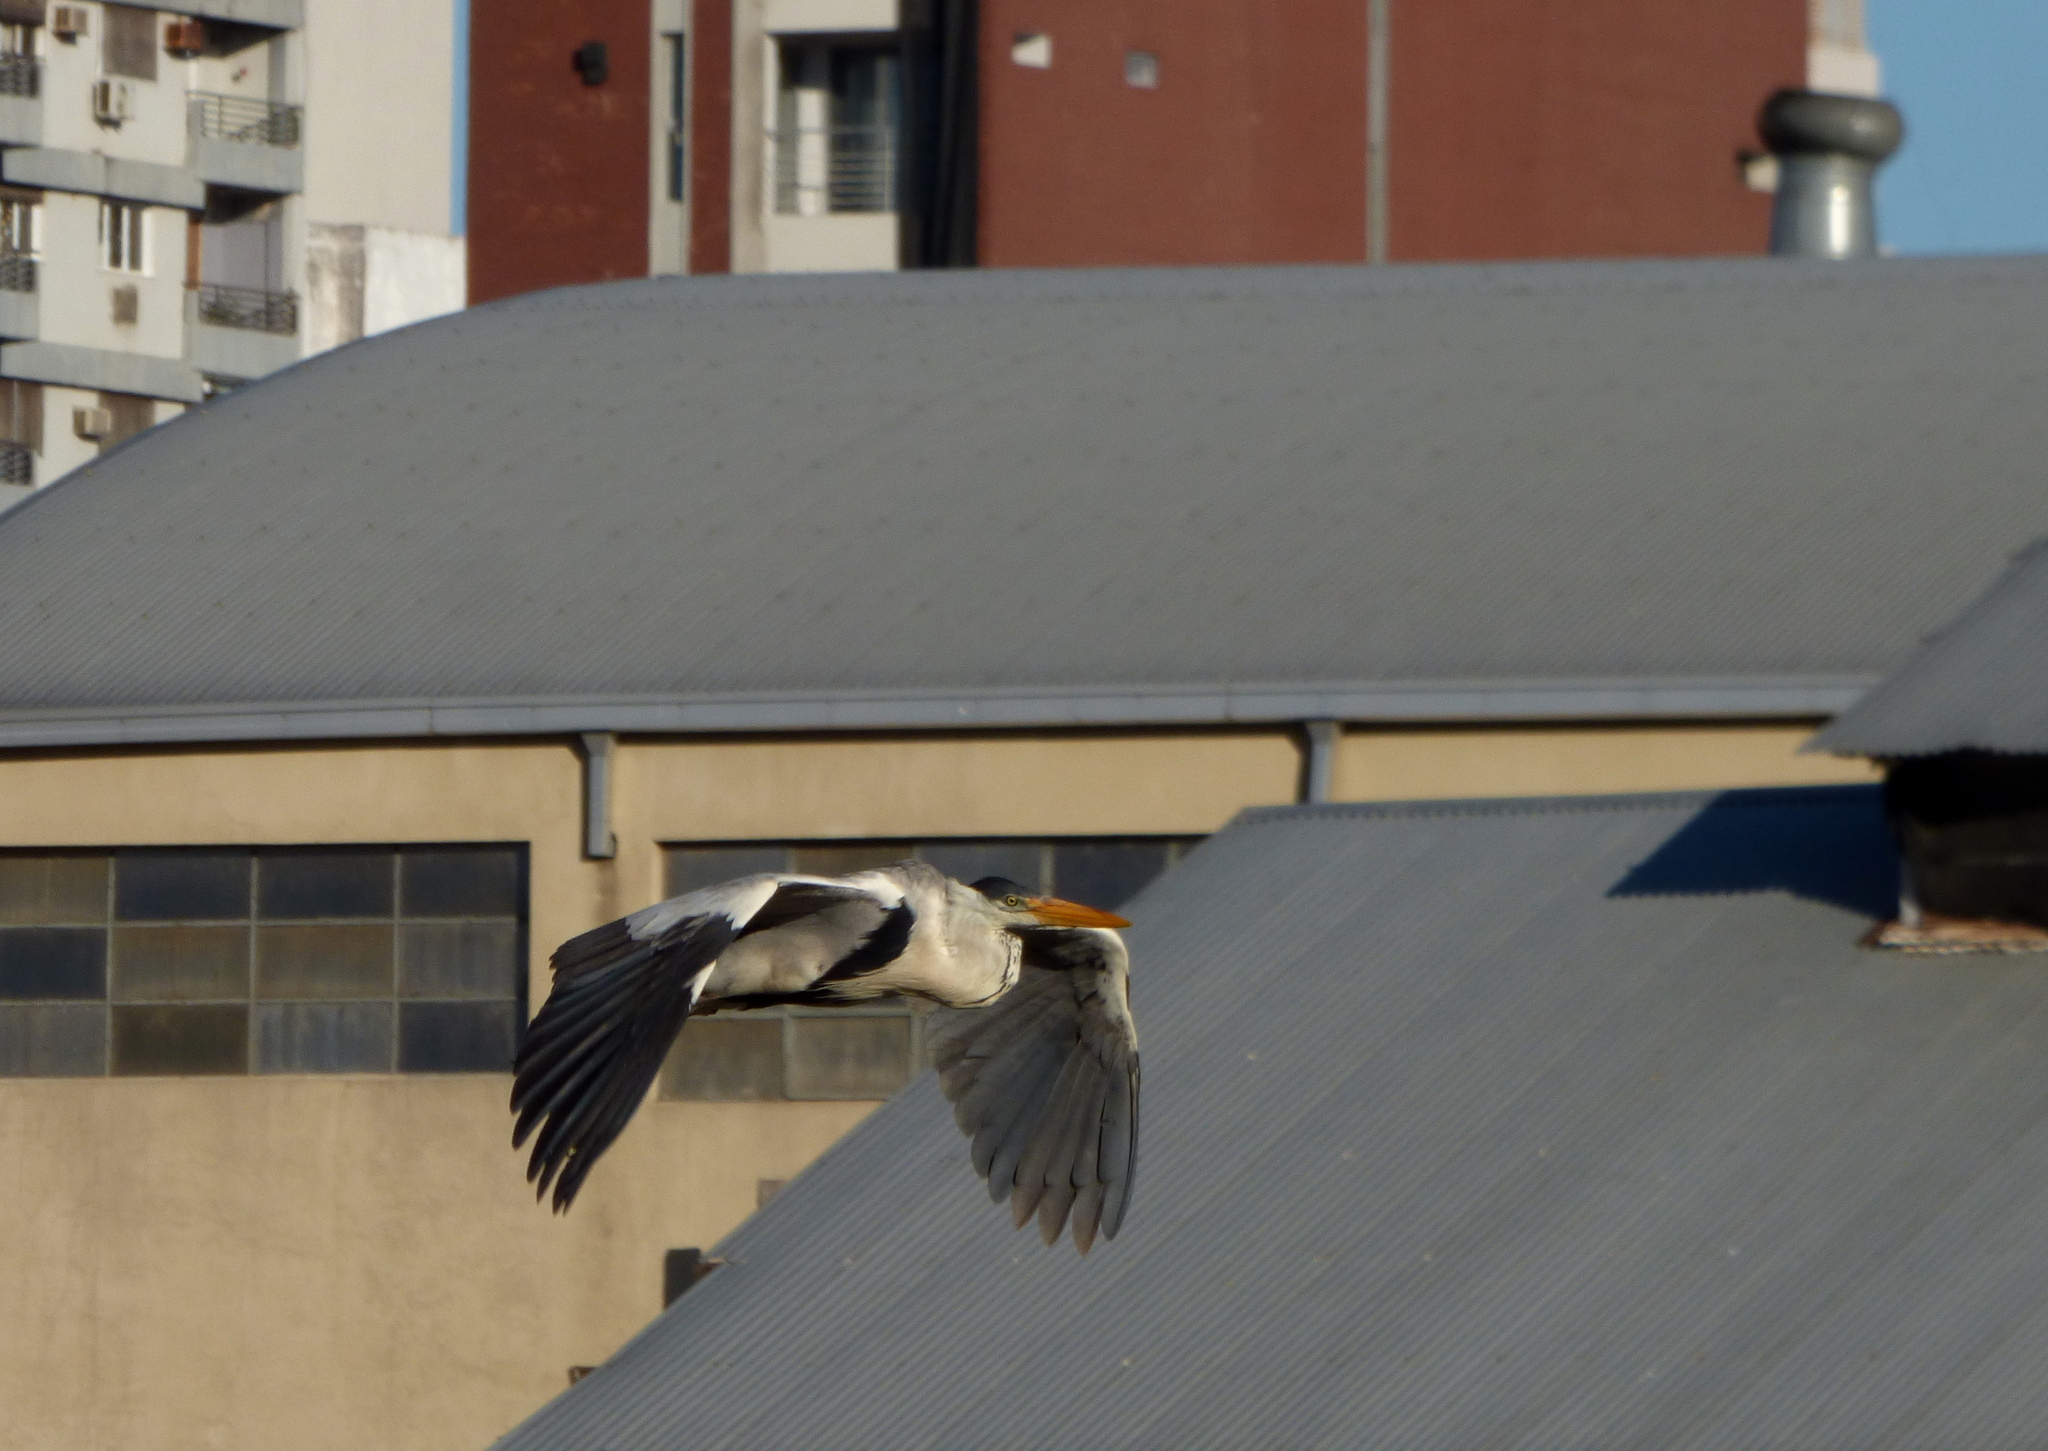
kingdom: Animalia
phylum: Chordata
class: Aves
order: Pelecaniformes
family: Ardeidae
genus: Ardea
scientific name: Ardea cocoi
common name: Cocoi heron
